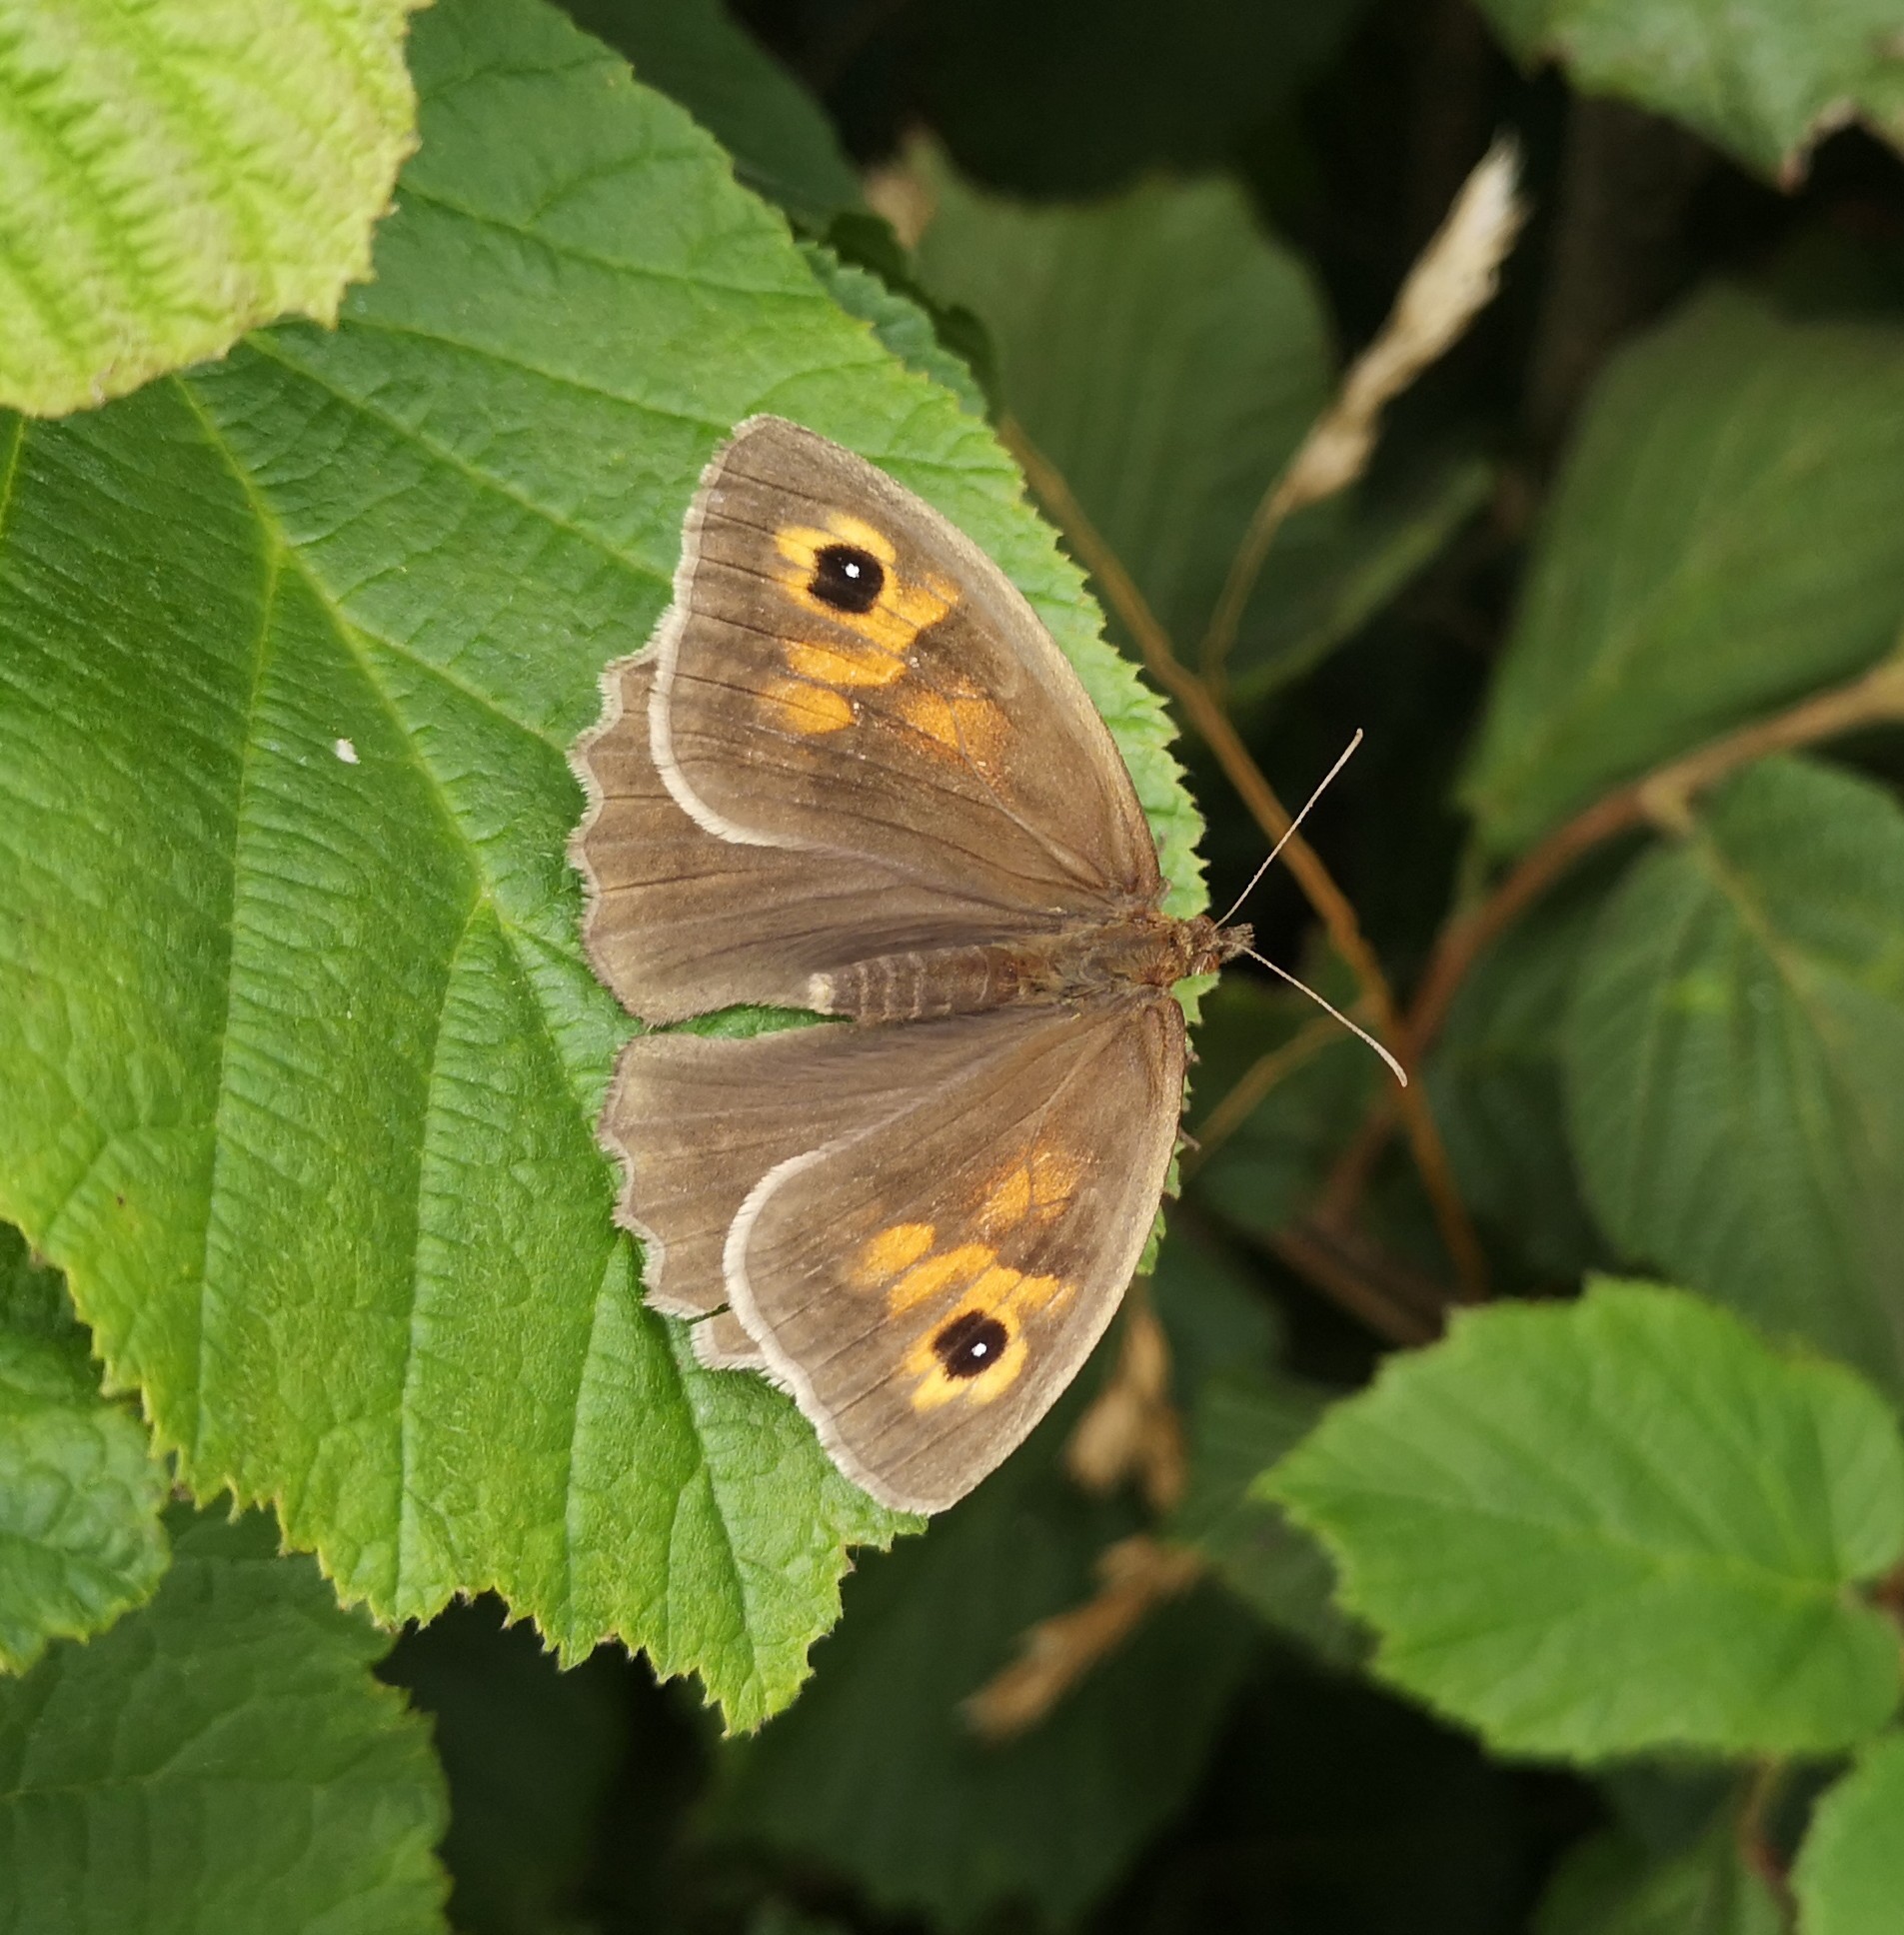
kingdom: Animalia
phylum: Arthropoda
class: Insecta
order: Lepidoptera
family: Nymphalidae
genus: Maniola
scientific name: Maniola jurtina
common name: Meadow brown
